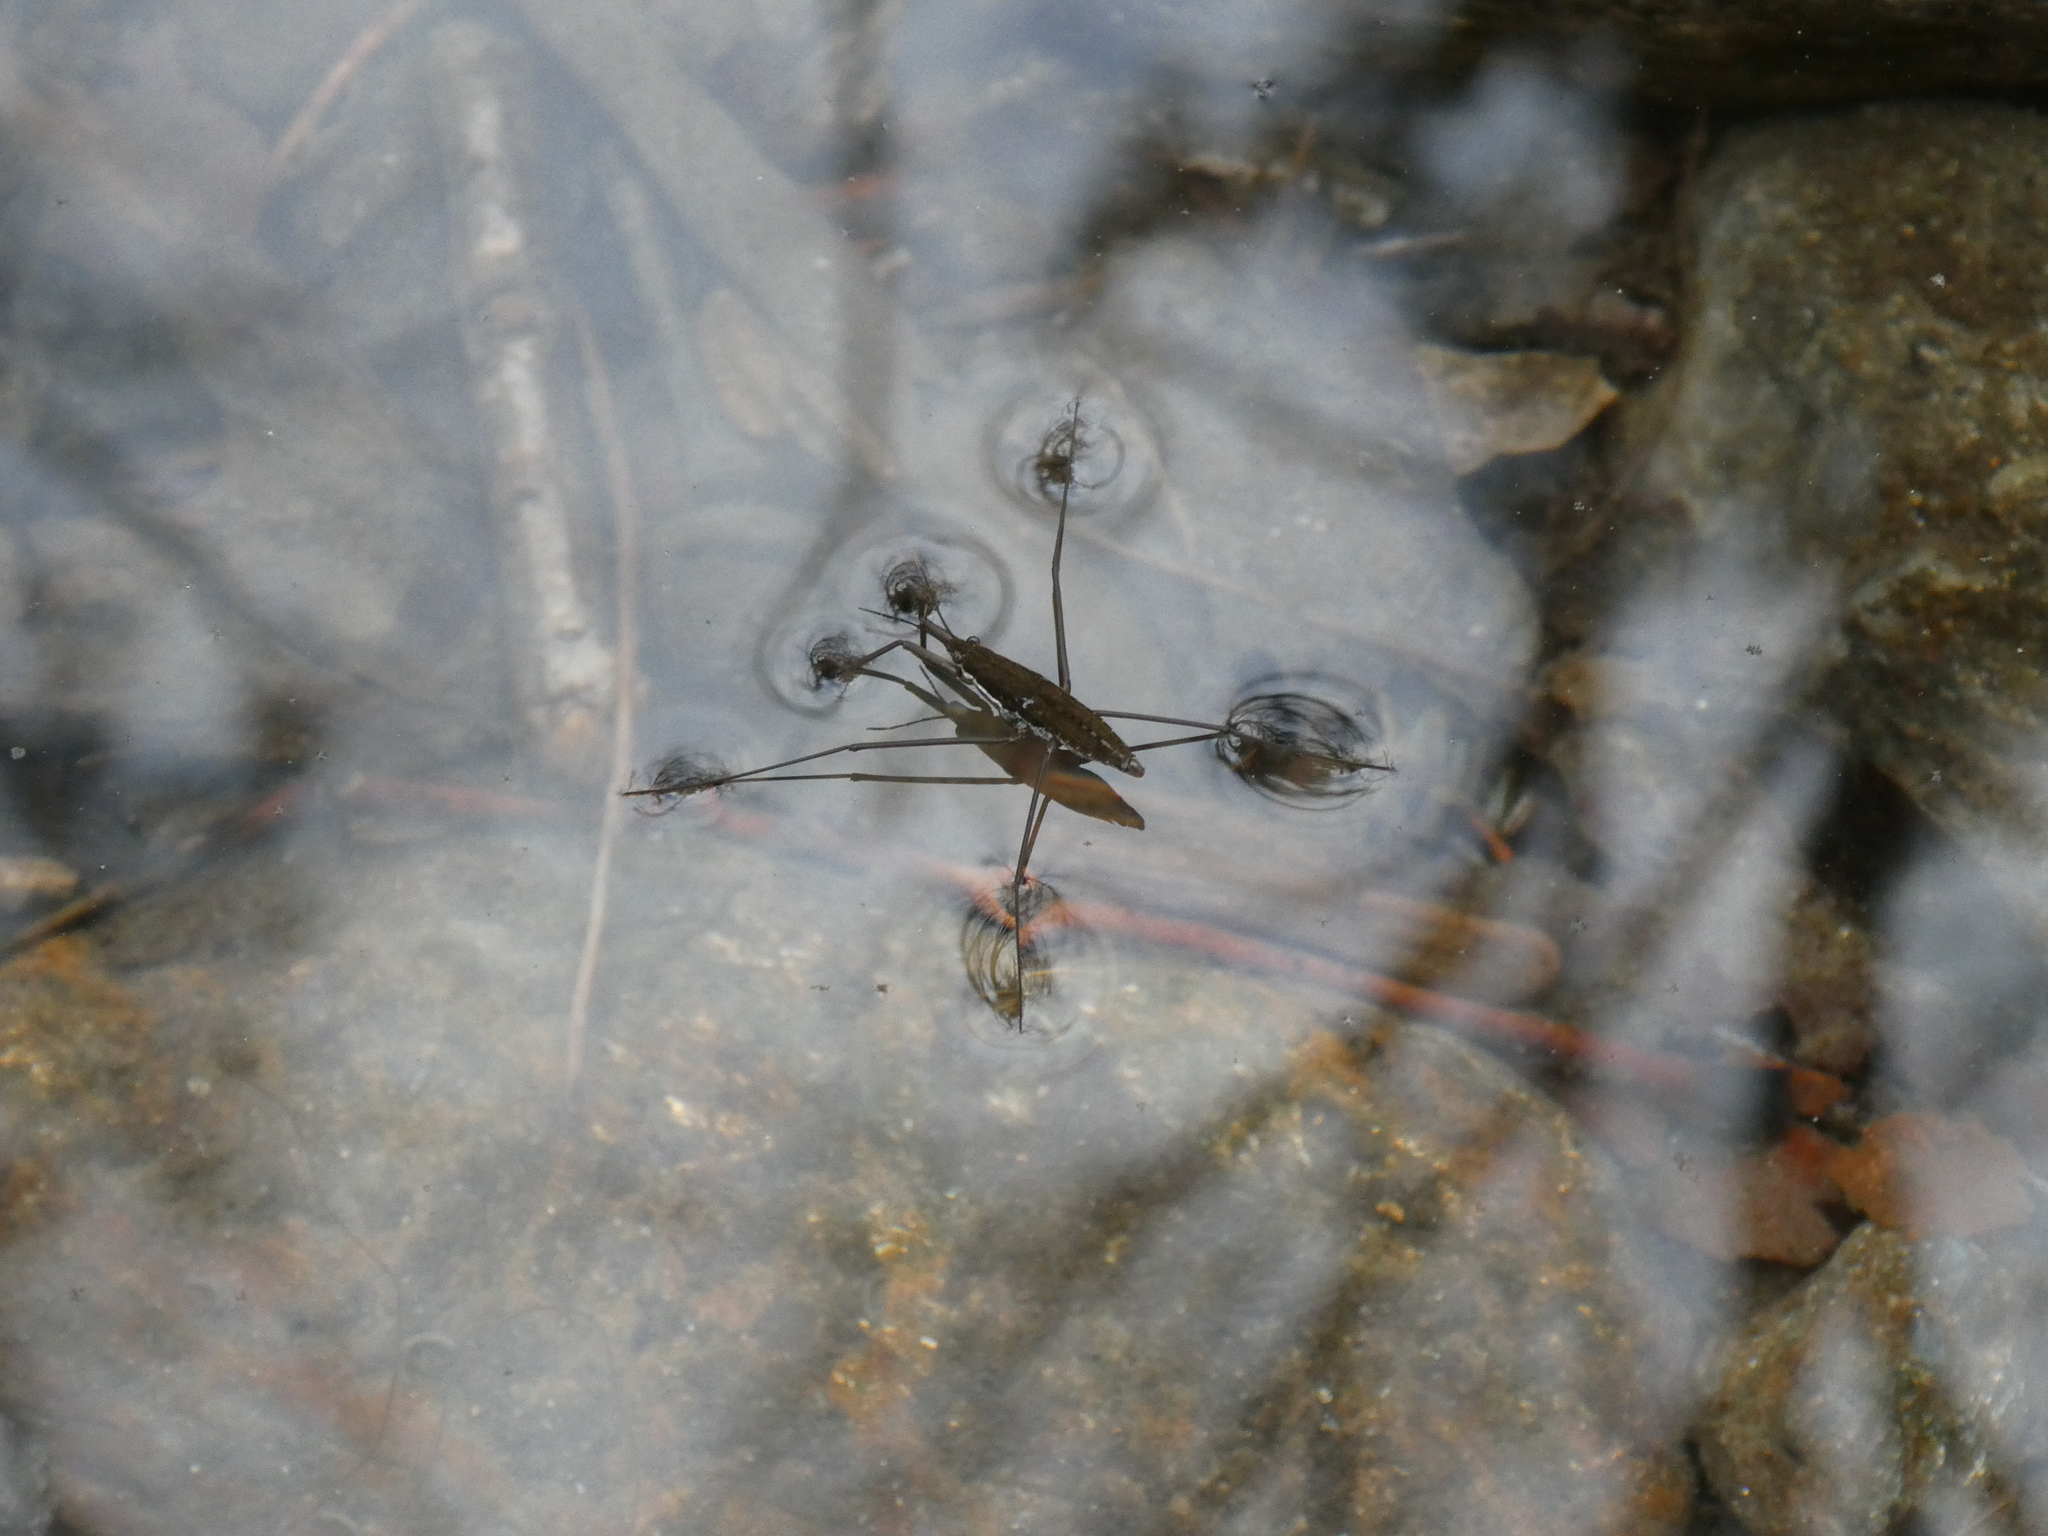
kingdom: Animalia
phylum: Arthropoda
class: Insecta
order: Hemiptera
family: Gerridae
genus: Aquarius
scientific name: Aquarius remigis
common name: Common water strider
